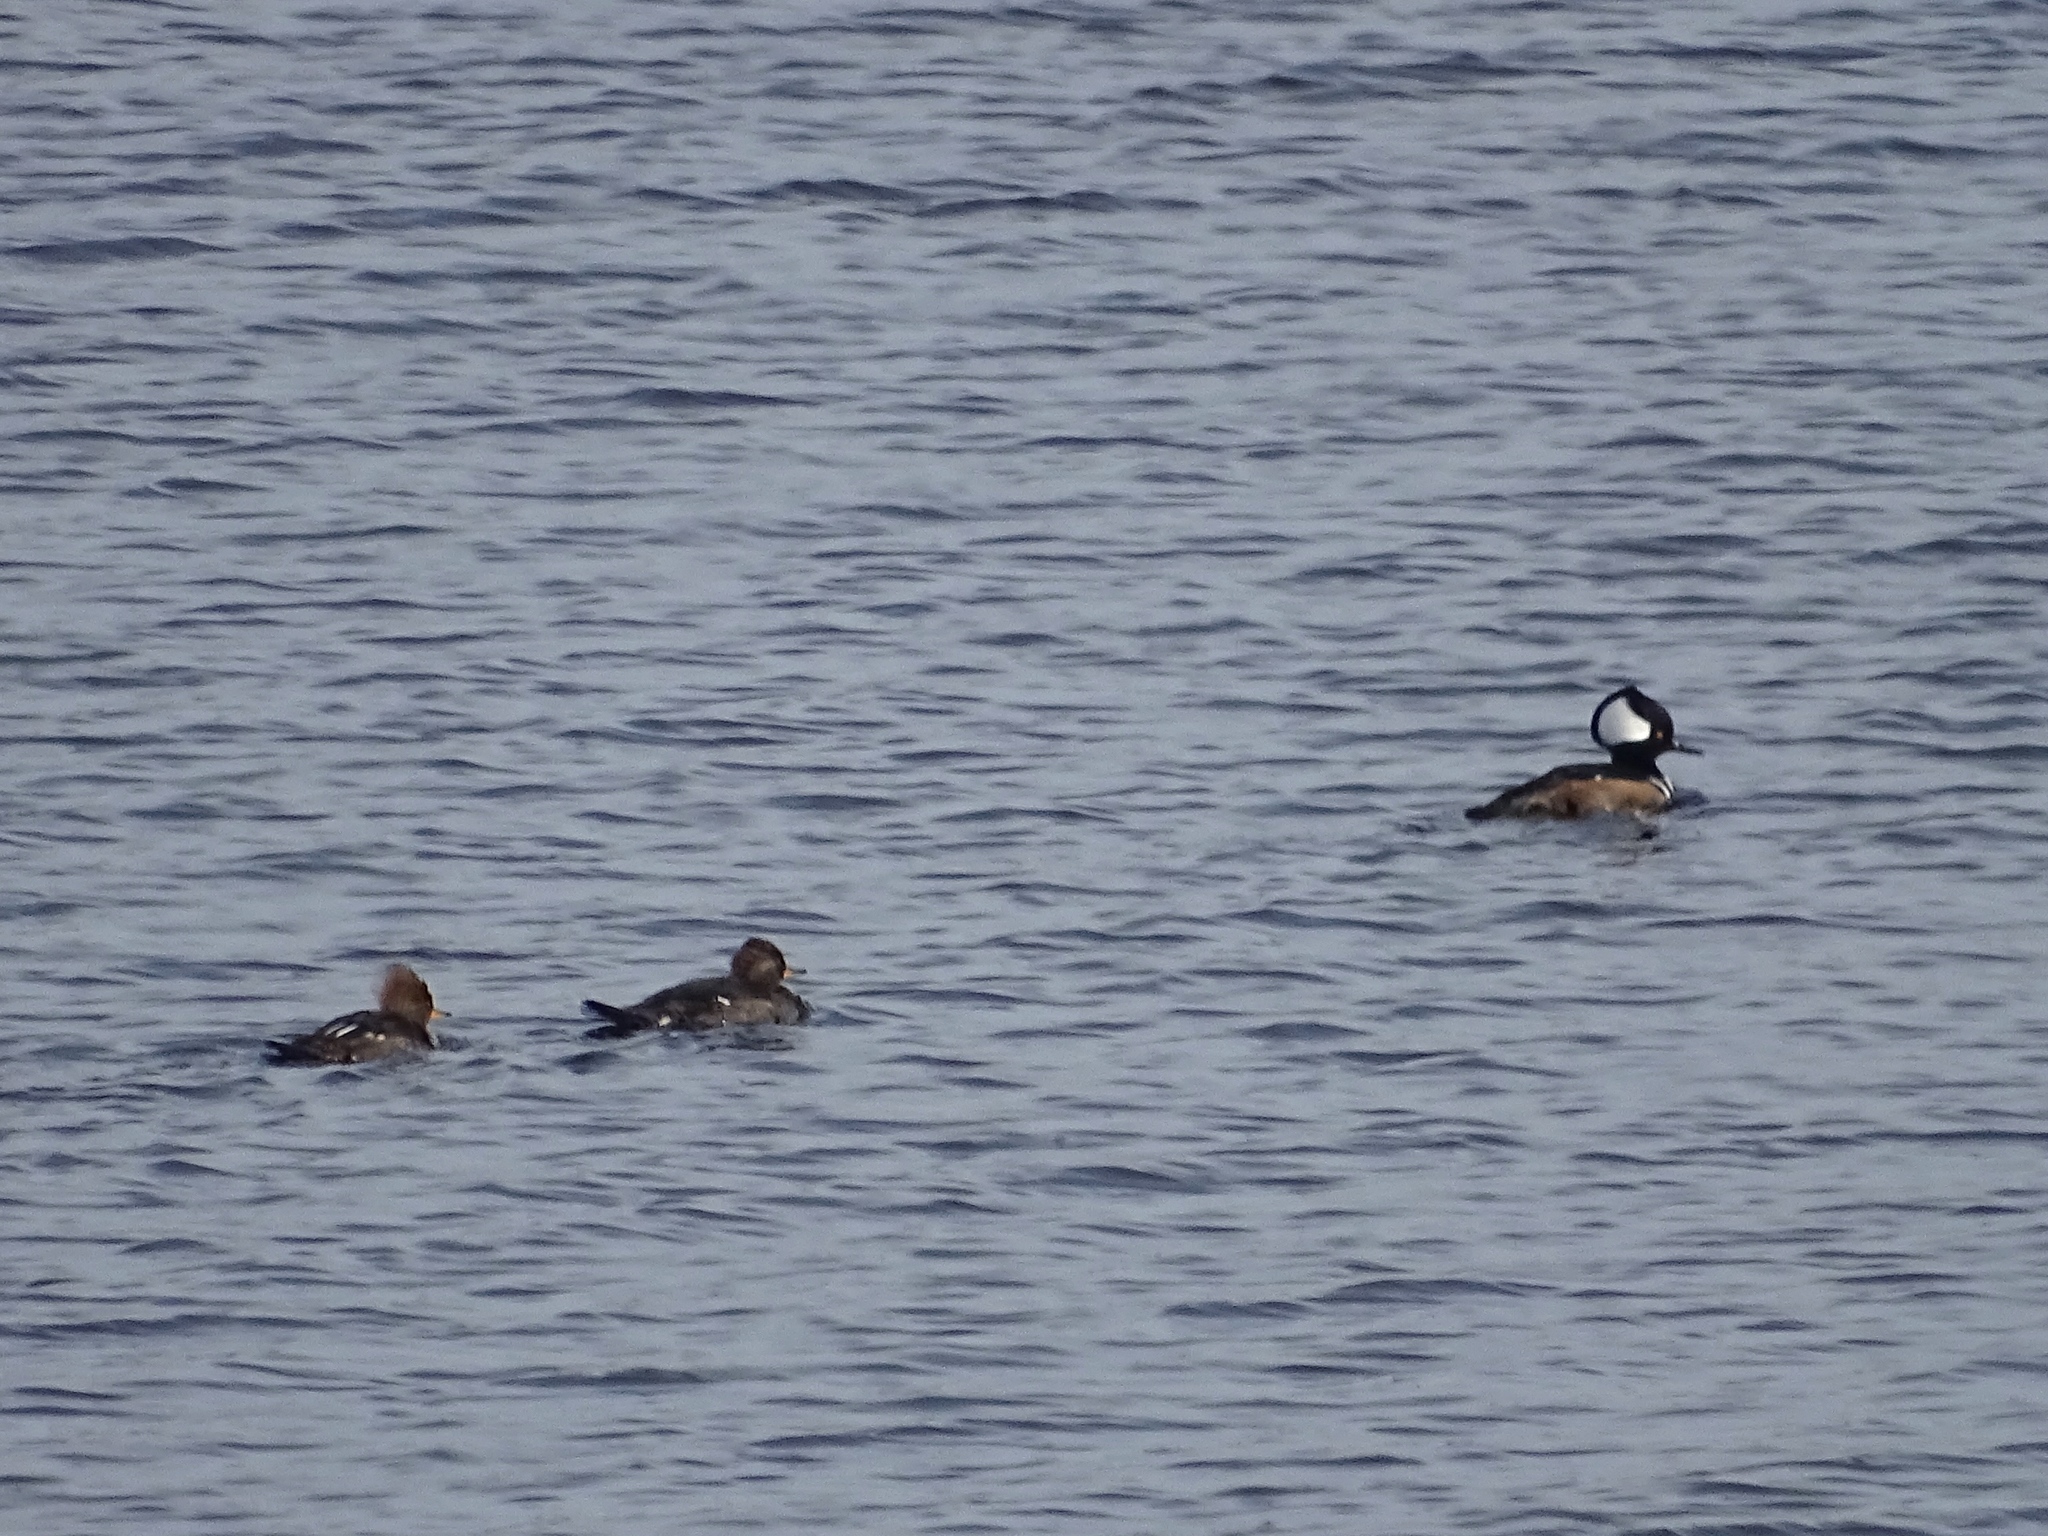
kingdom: Animalia
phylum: Chordata
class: Aves
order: Anseriformes
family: Anatidae
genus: Lophodytes
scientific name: Lophodytes cucullatus
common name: Hooded merganser
